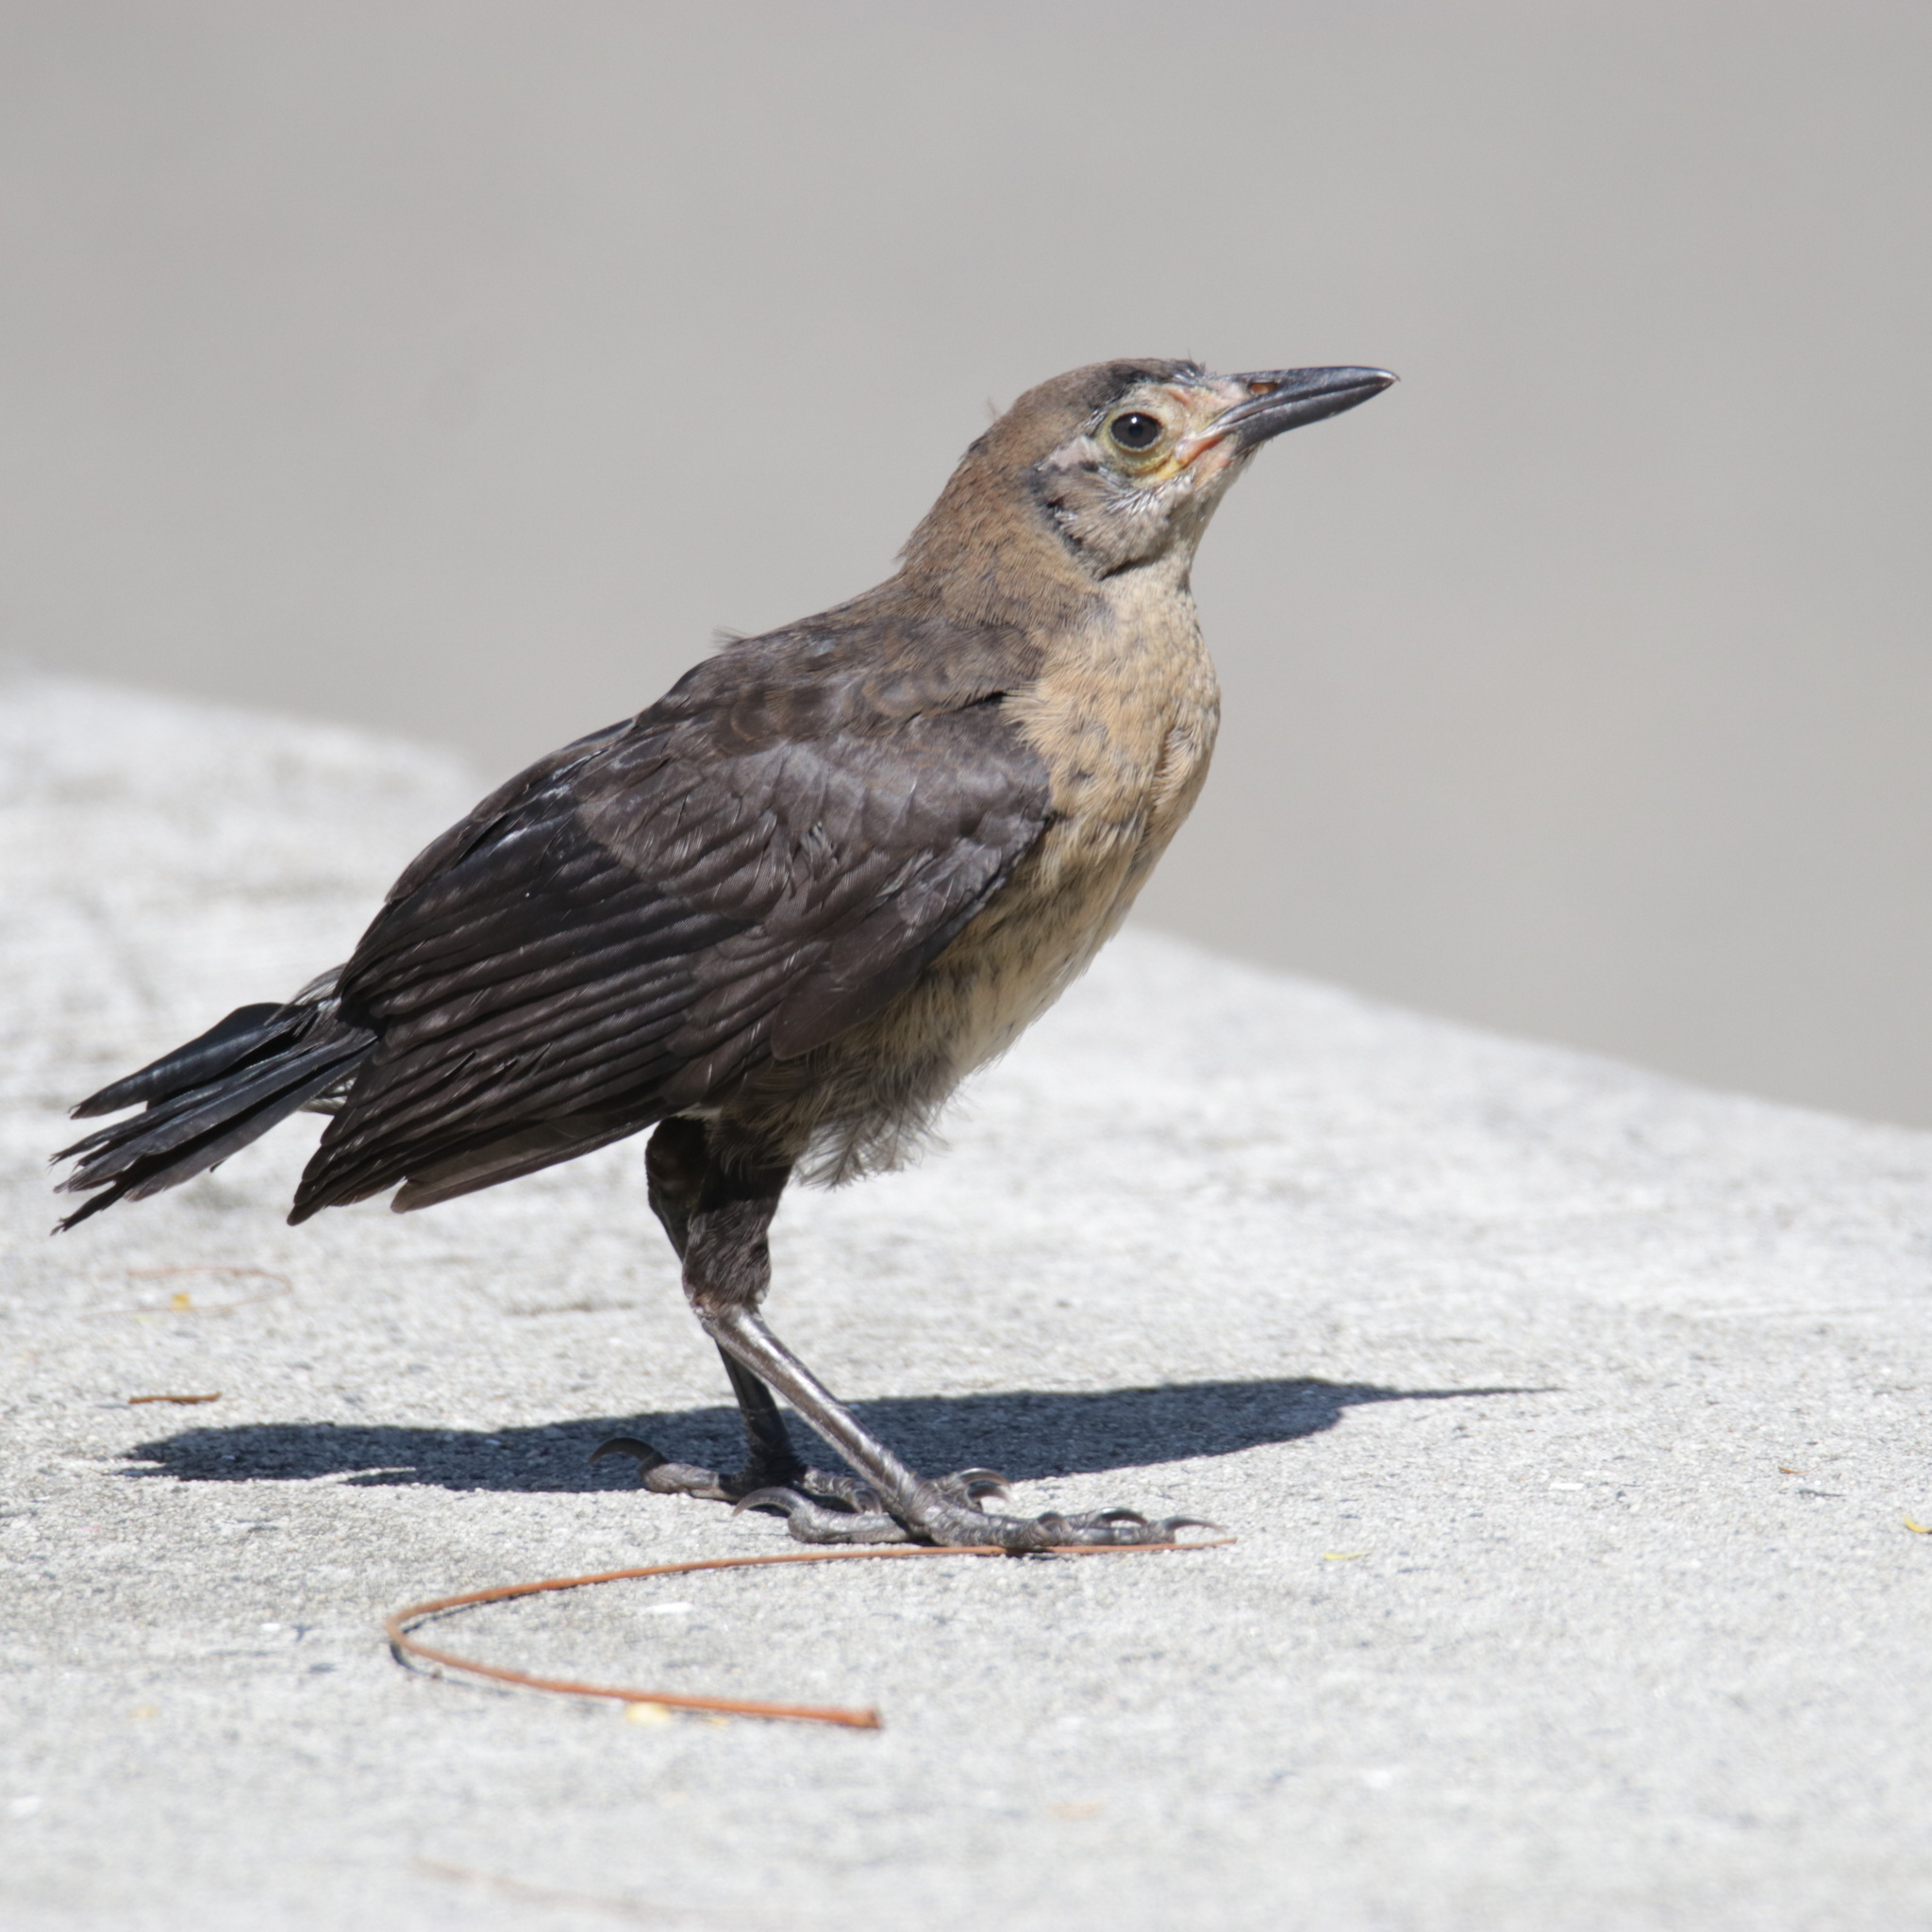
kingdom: Animalia
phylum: Chordata
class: Aves
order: Passeriformes
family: Icteridae
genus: Quiscalus
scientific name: Quiscalus mexicanus
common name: Great-tailed grackle
